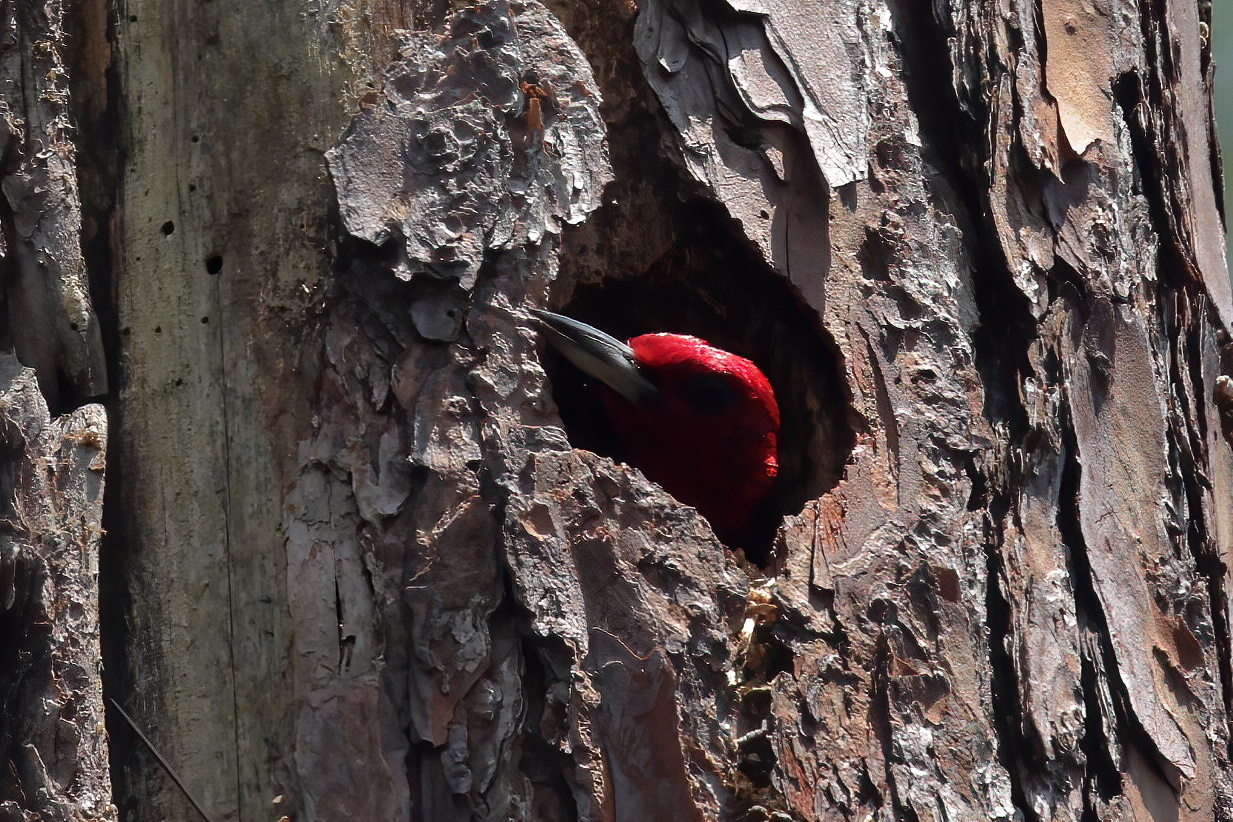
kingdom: Animalia
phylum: Chordata
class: Aves
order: Piciformes
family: Picidae
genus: Melanerpes
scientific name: Melanerpes erythrocephalus
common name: Red-headed woodpecker
